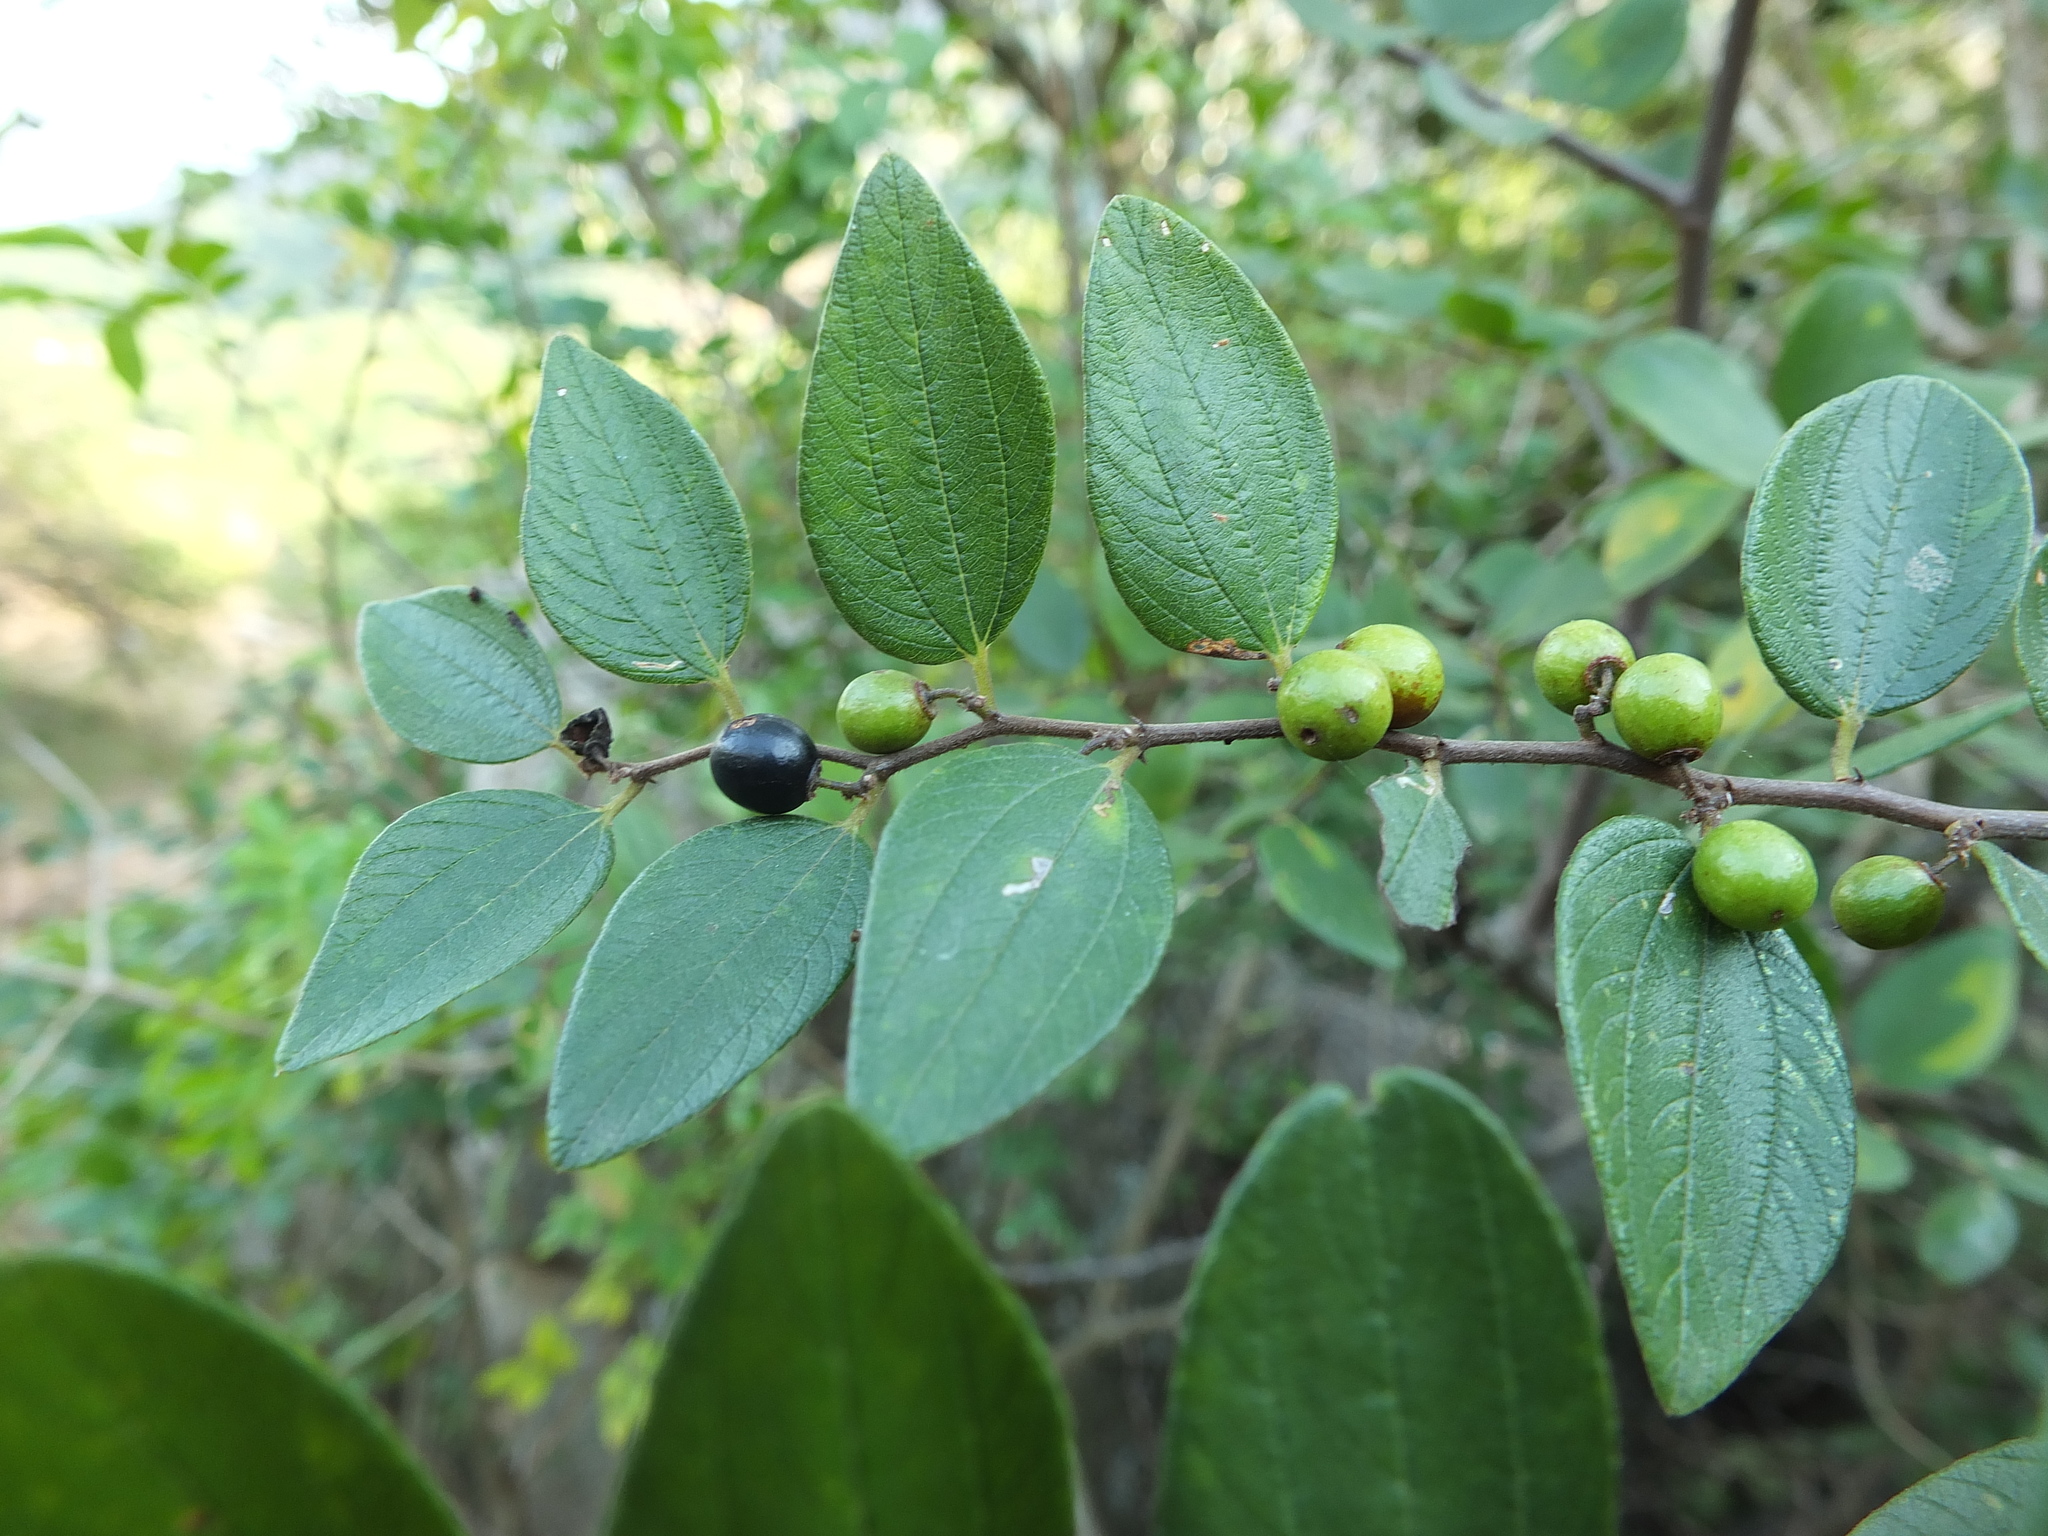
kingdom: Plantae
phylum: Tracheophyta
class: Magnoliopsida
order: Rosales
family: Rhamnaceae
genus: Ziziphus
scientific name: Ziziphus oenopolia
